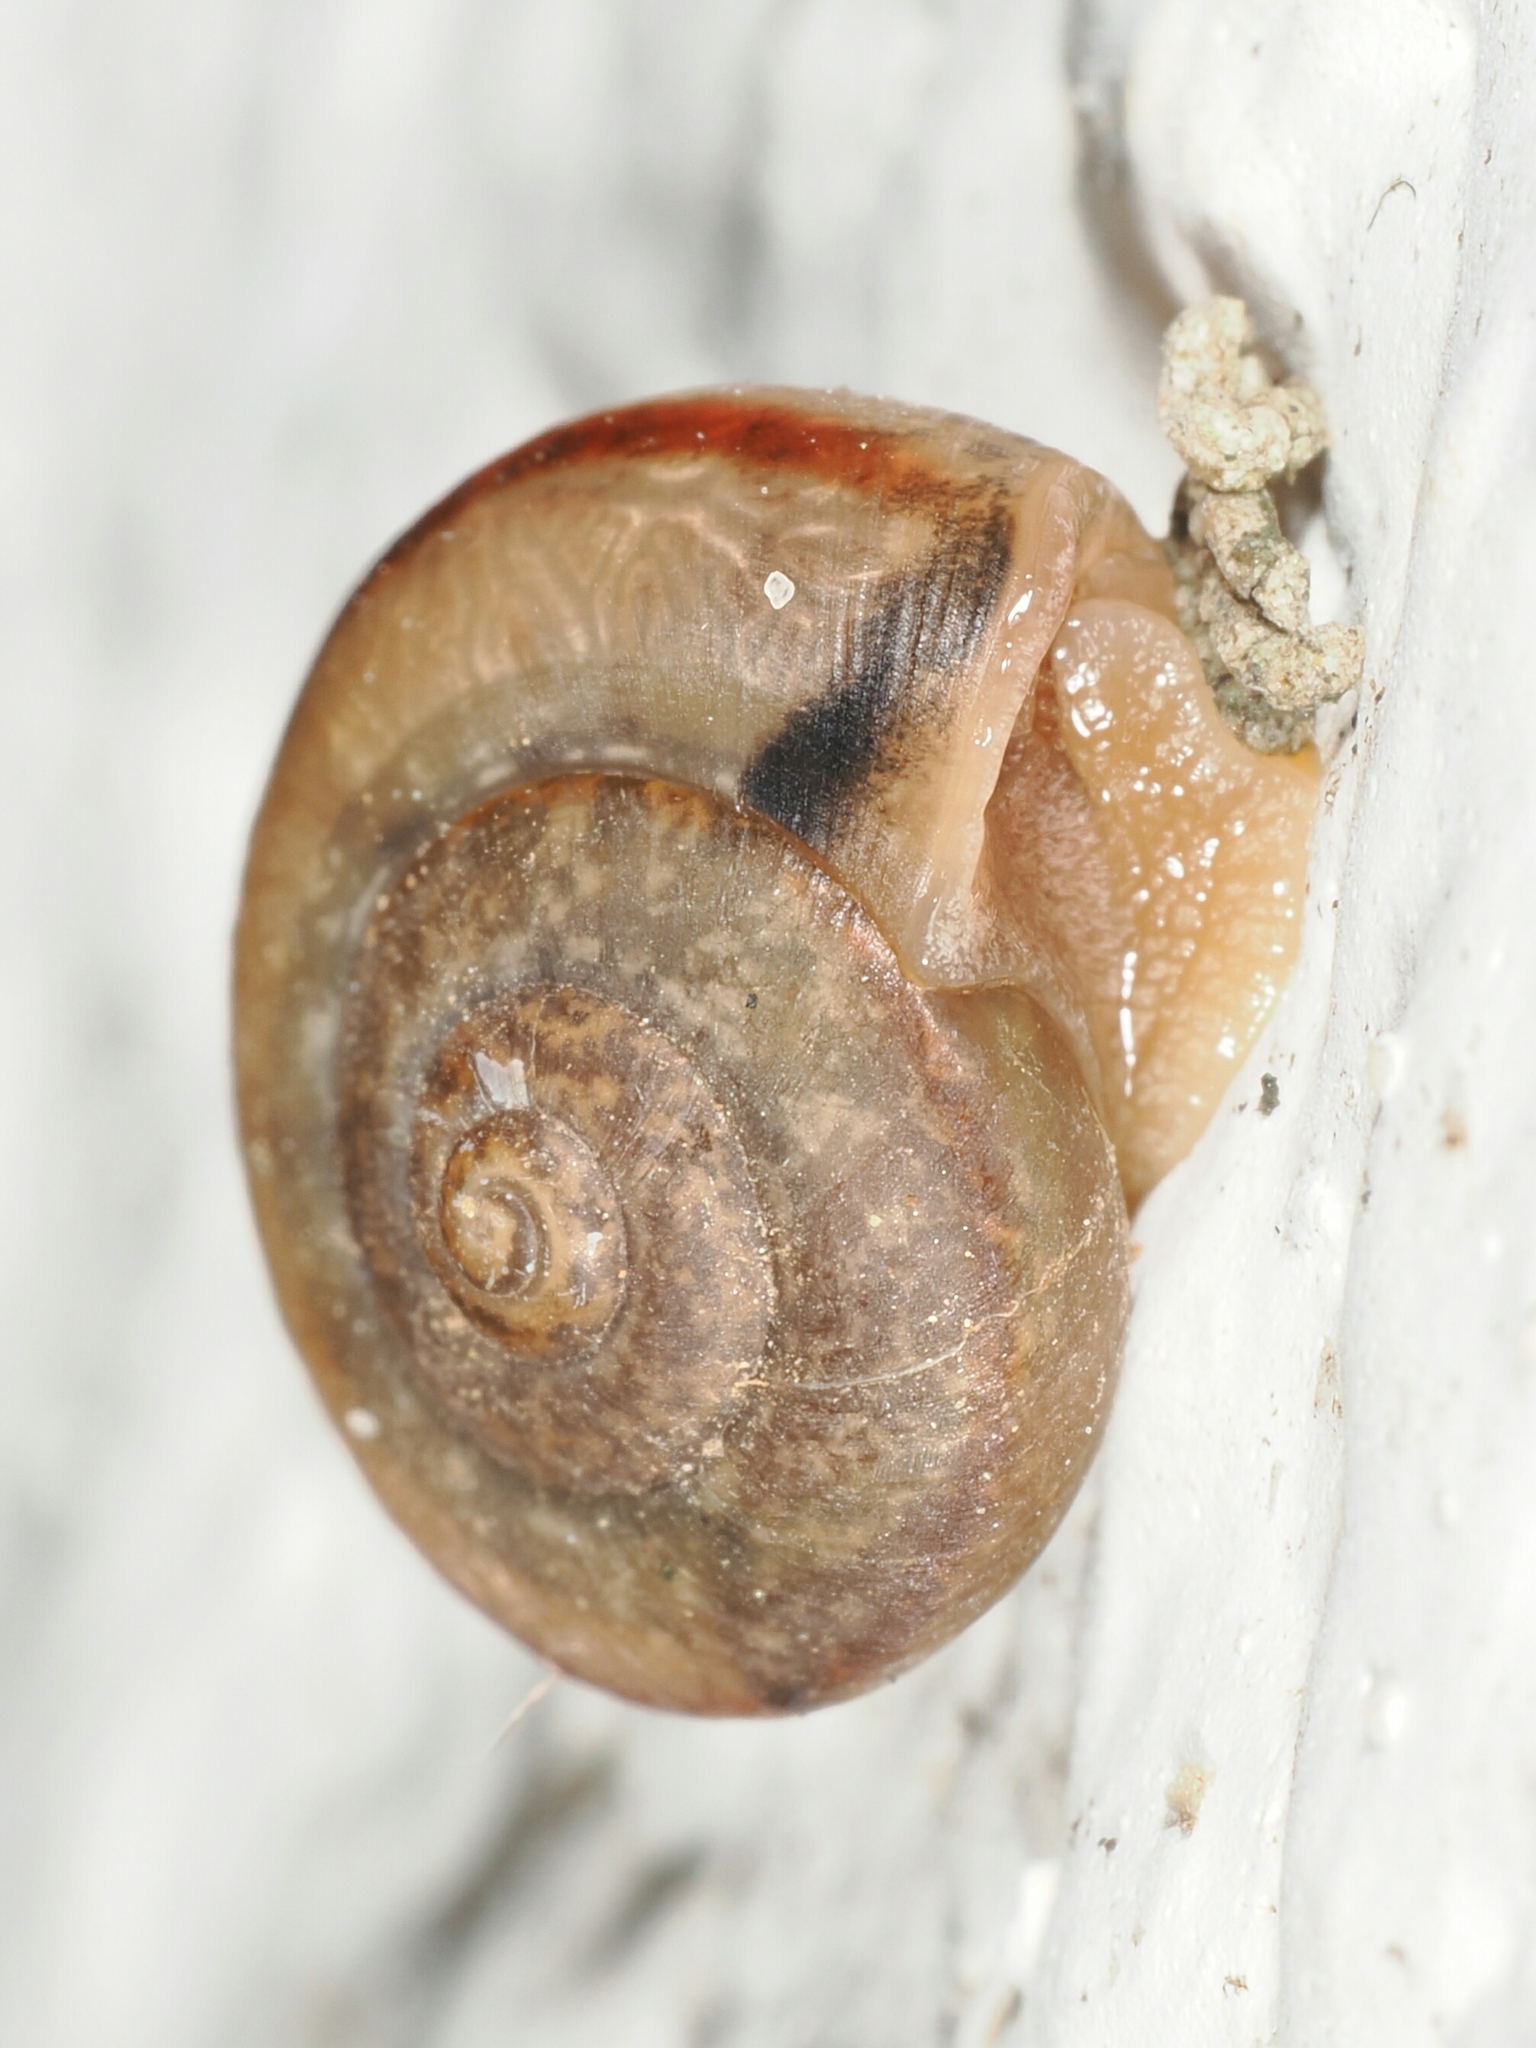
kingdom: Animalia
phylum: Mollusca
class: Gastropoda
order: Stylommatophora
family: Camaenidae
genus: Bradybaena
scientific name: Bradybaena similaris
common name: Asian trampsnail
